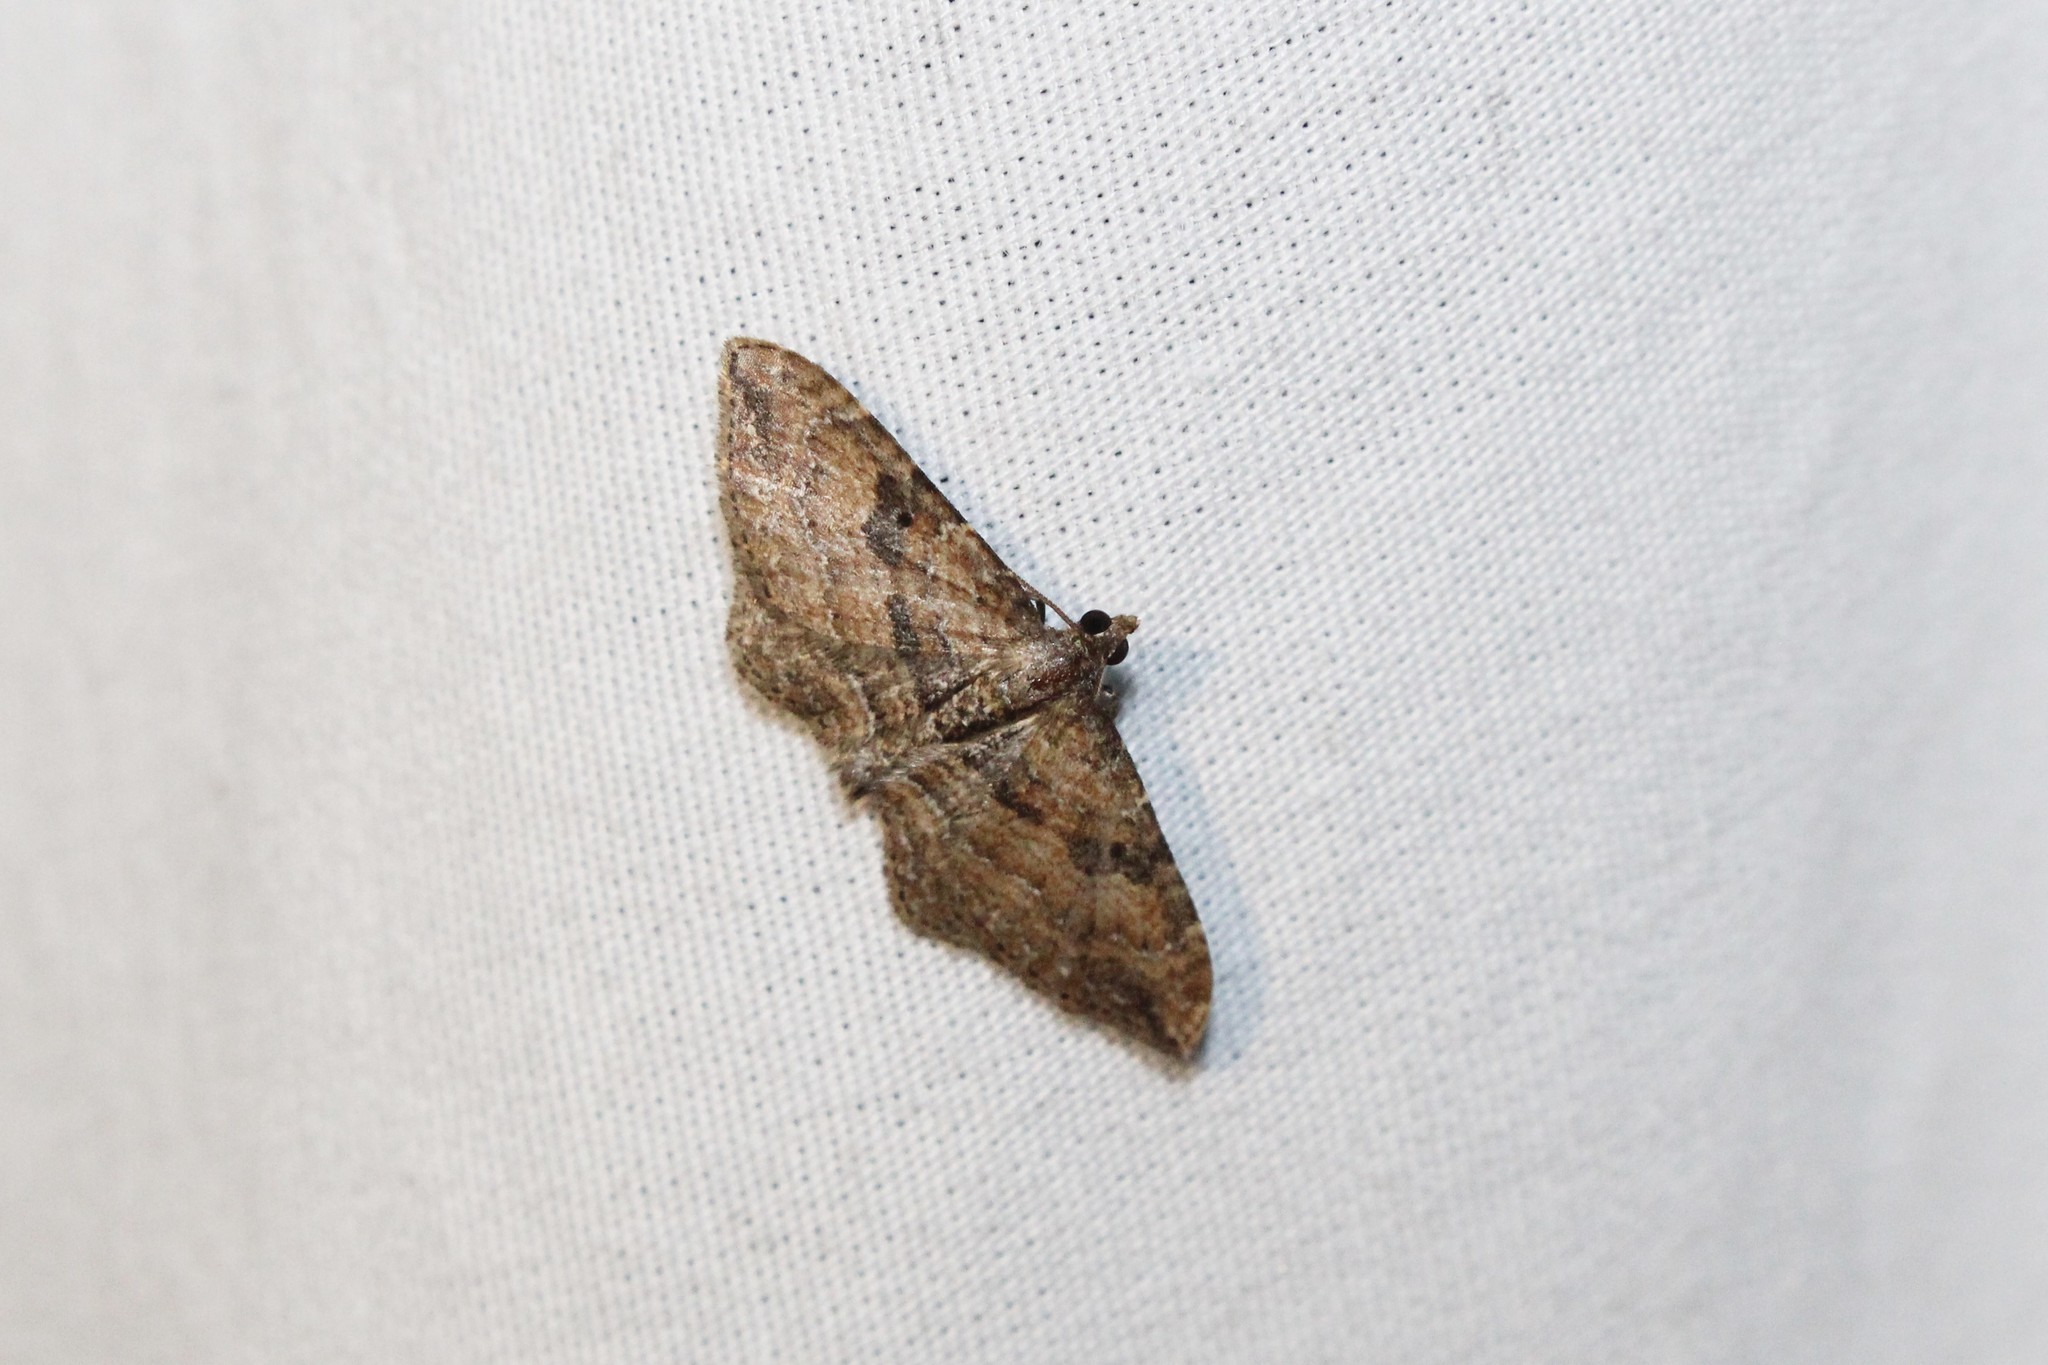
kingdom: Animalia
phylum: Arthropoda
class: Insecta
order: Lepidoptera
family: Geometridae
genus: Orthonama
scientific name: Orthonama obstipata
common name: The gem
